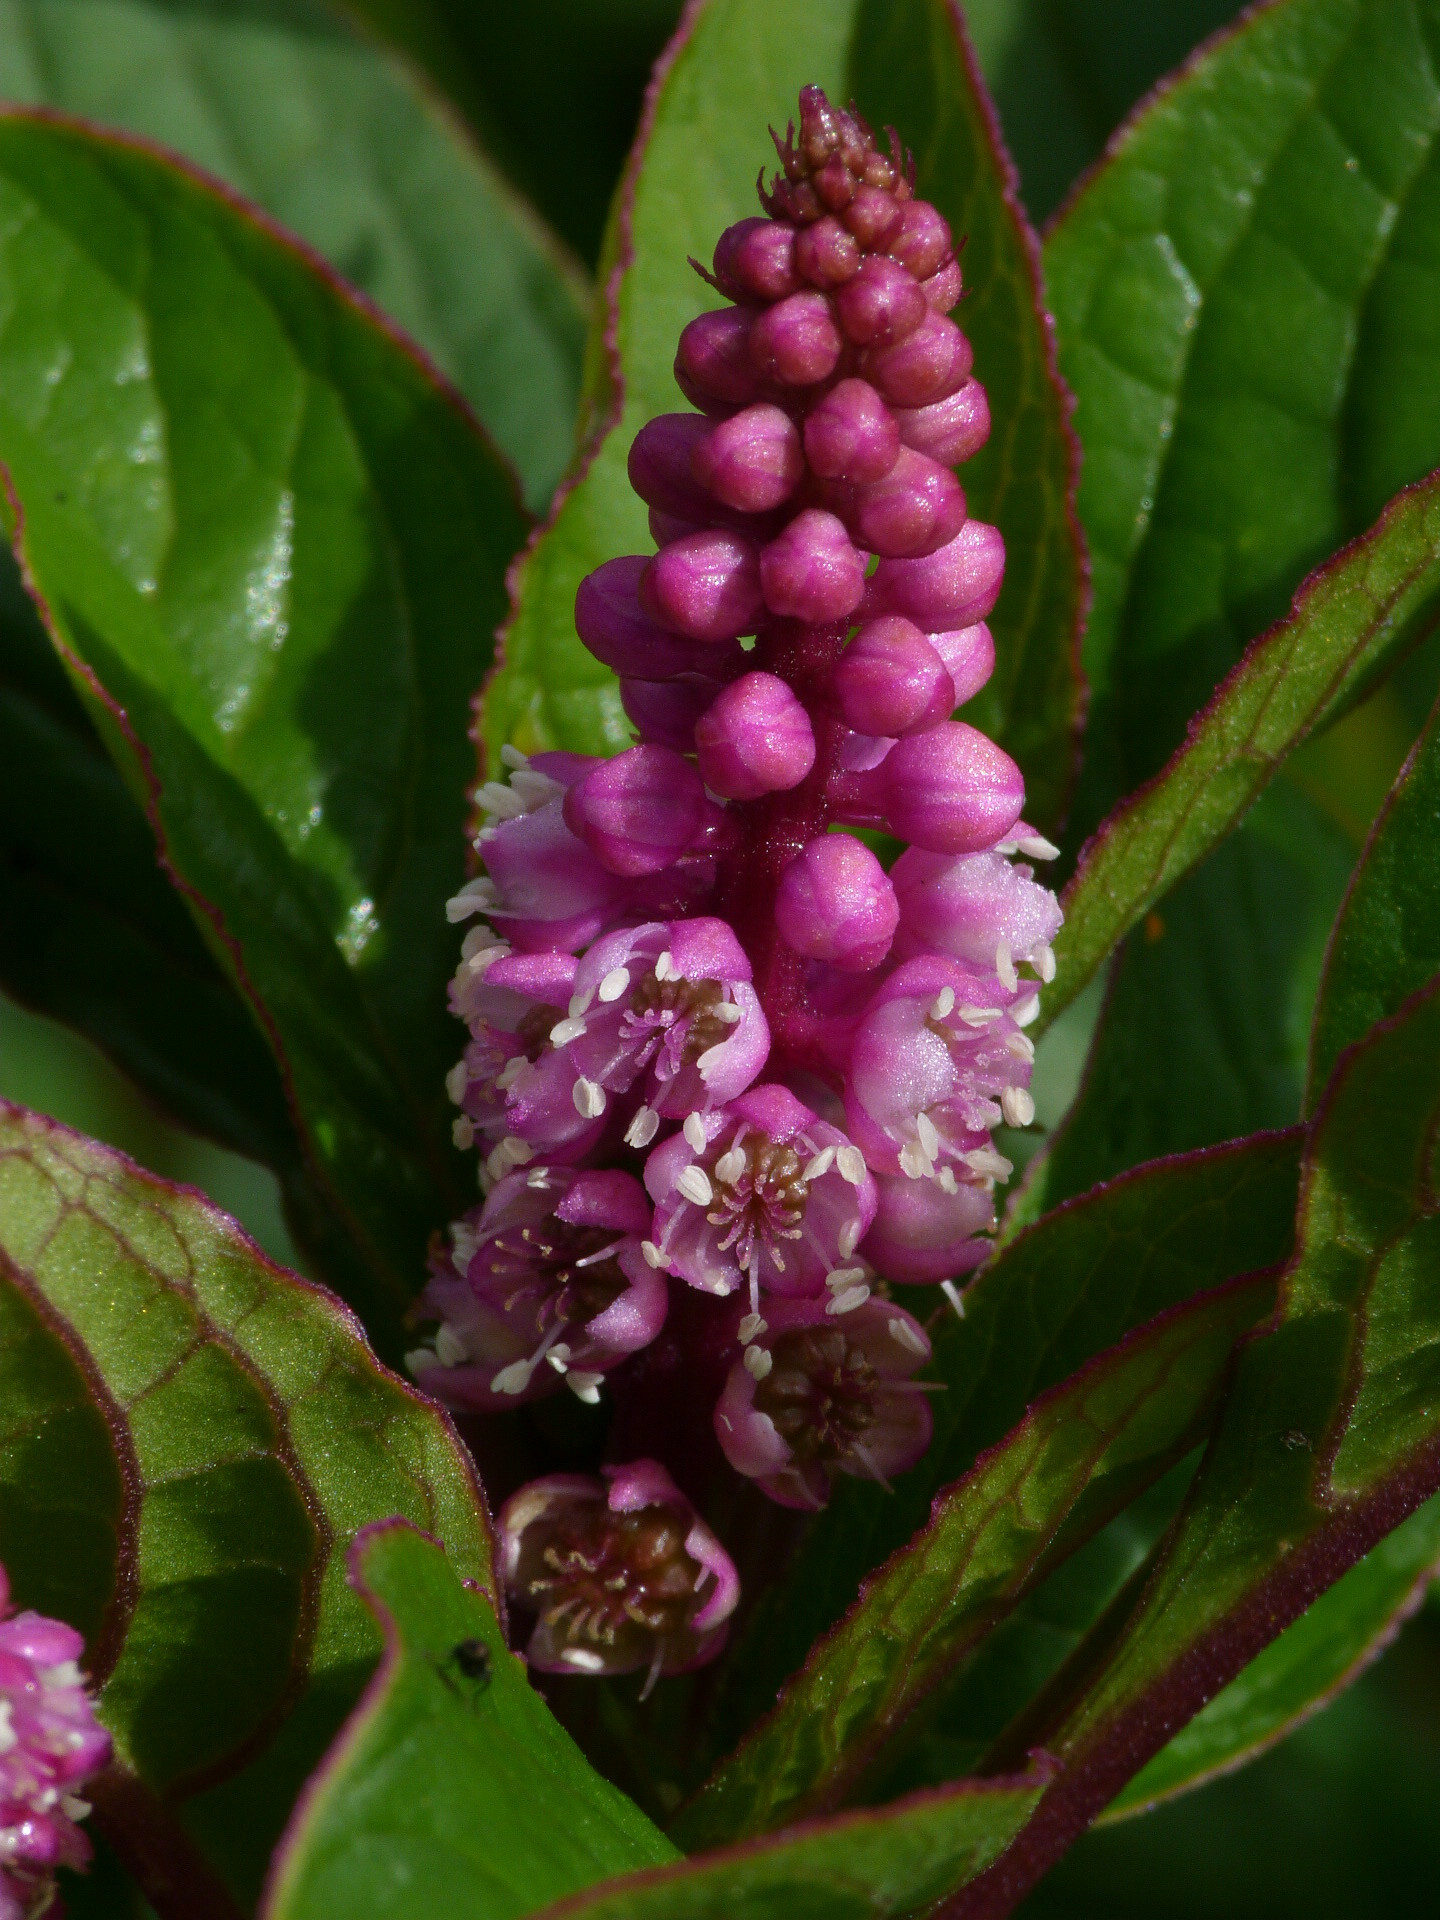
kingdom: Plantae
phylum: Tracheophyta
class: Magnoliopsida
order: Caryophyllales
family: Phytolaccaceae
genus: Phytolacca
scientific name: Phytolacca bogotensis
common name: Southern pokeweed
